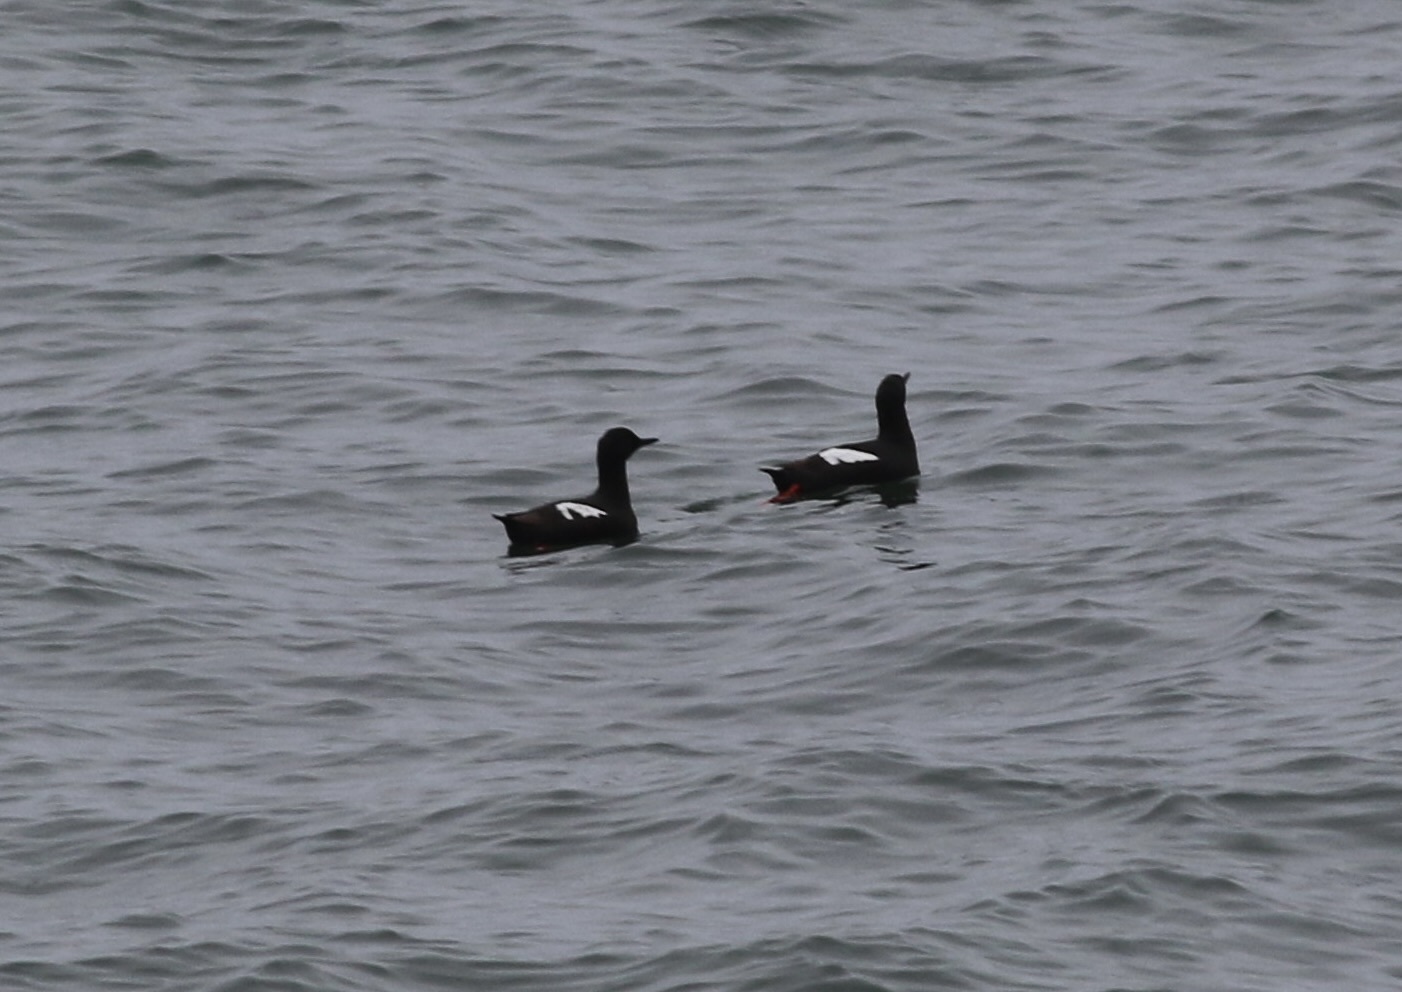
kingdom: Animalia
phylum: Chordata
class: Aves
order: Charadriiformes
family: Alcidae
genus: Cepphus
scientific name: Cepphus columba
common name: Pigeon guillemot
